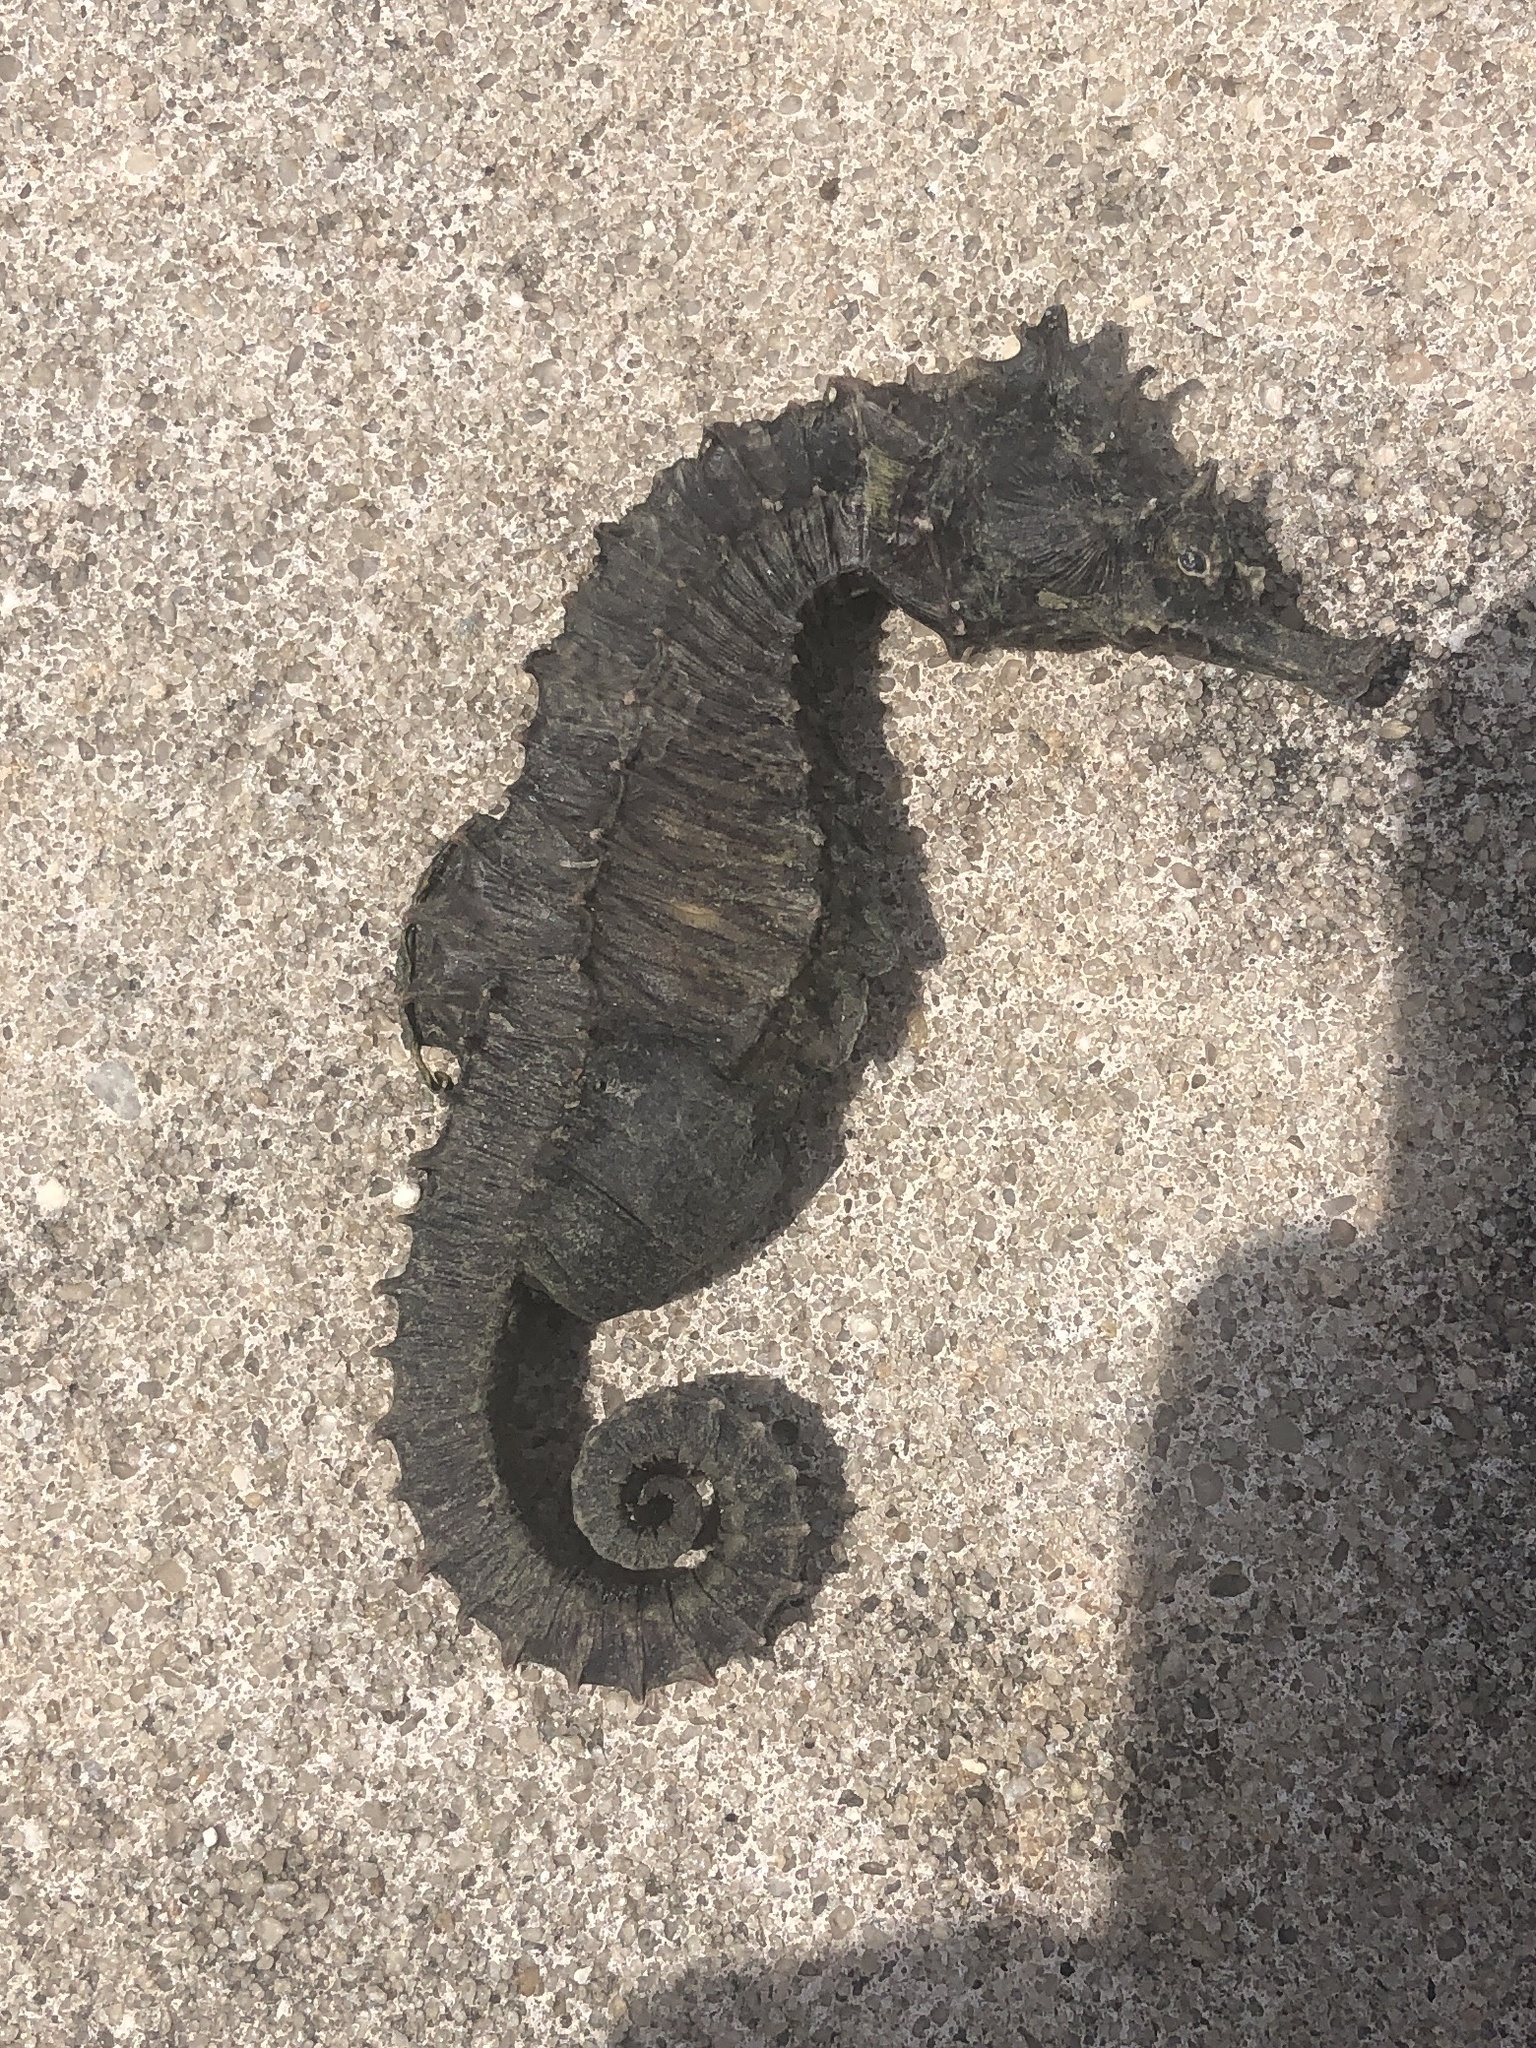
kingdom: Animalia
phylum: Chordata
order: Syngnathiformes
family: Syngnathidae
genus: Hippocampus
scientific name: Hippocampus erectus
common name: Lined seahorse
